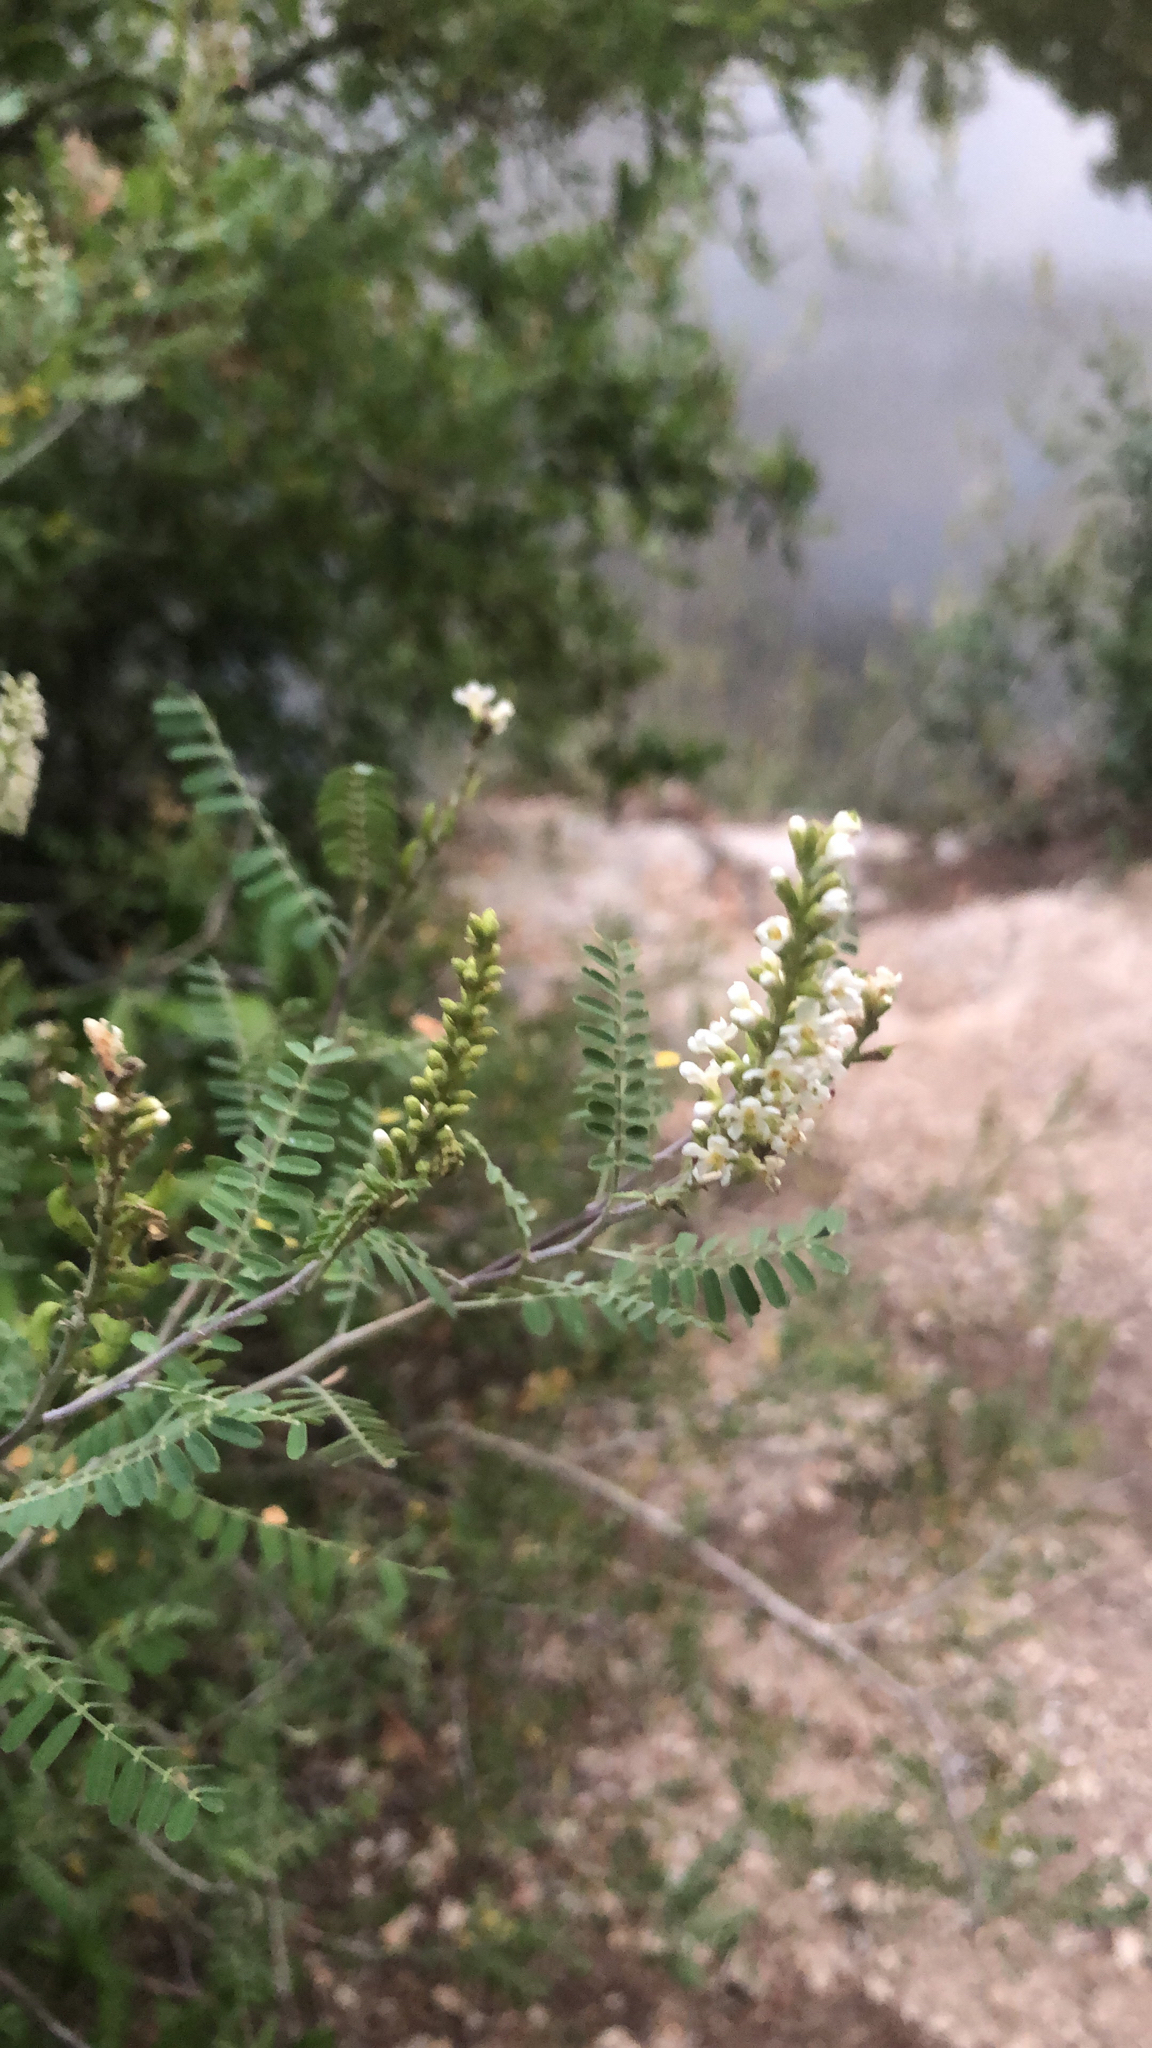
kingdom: Plantae
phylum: Tracheophyta
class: Magnoliopsida
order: Fabales
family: Fabaceae
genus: Eysenhardtia
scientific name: Eysenhardtia texana
